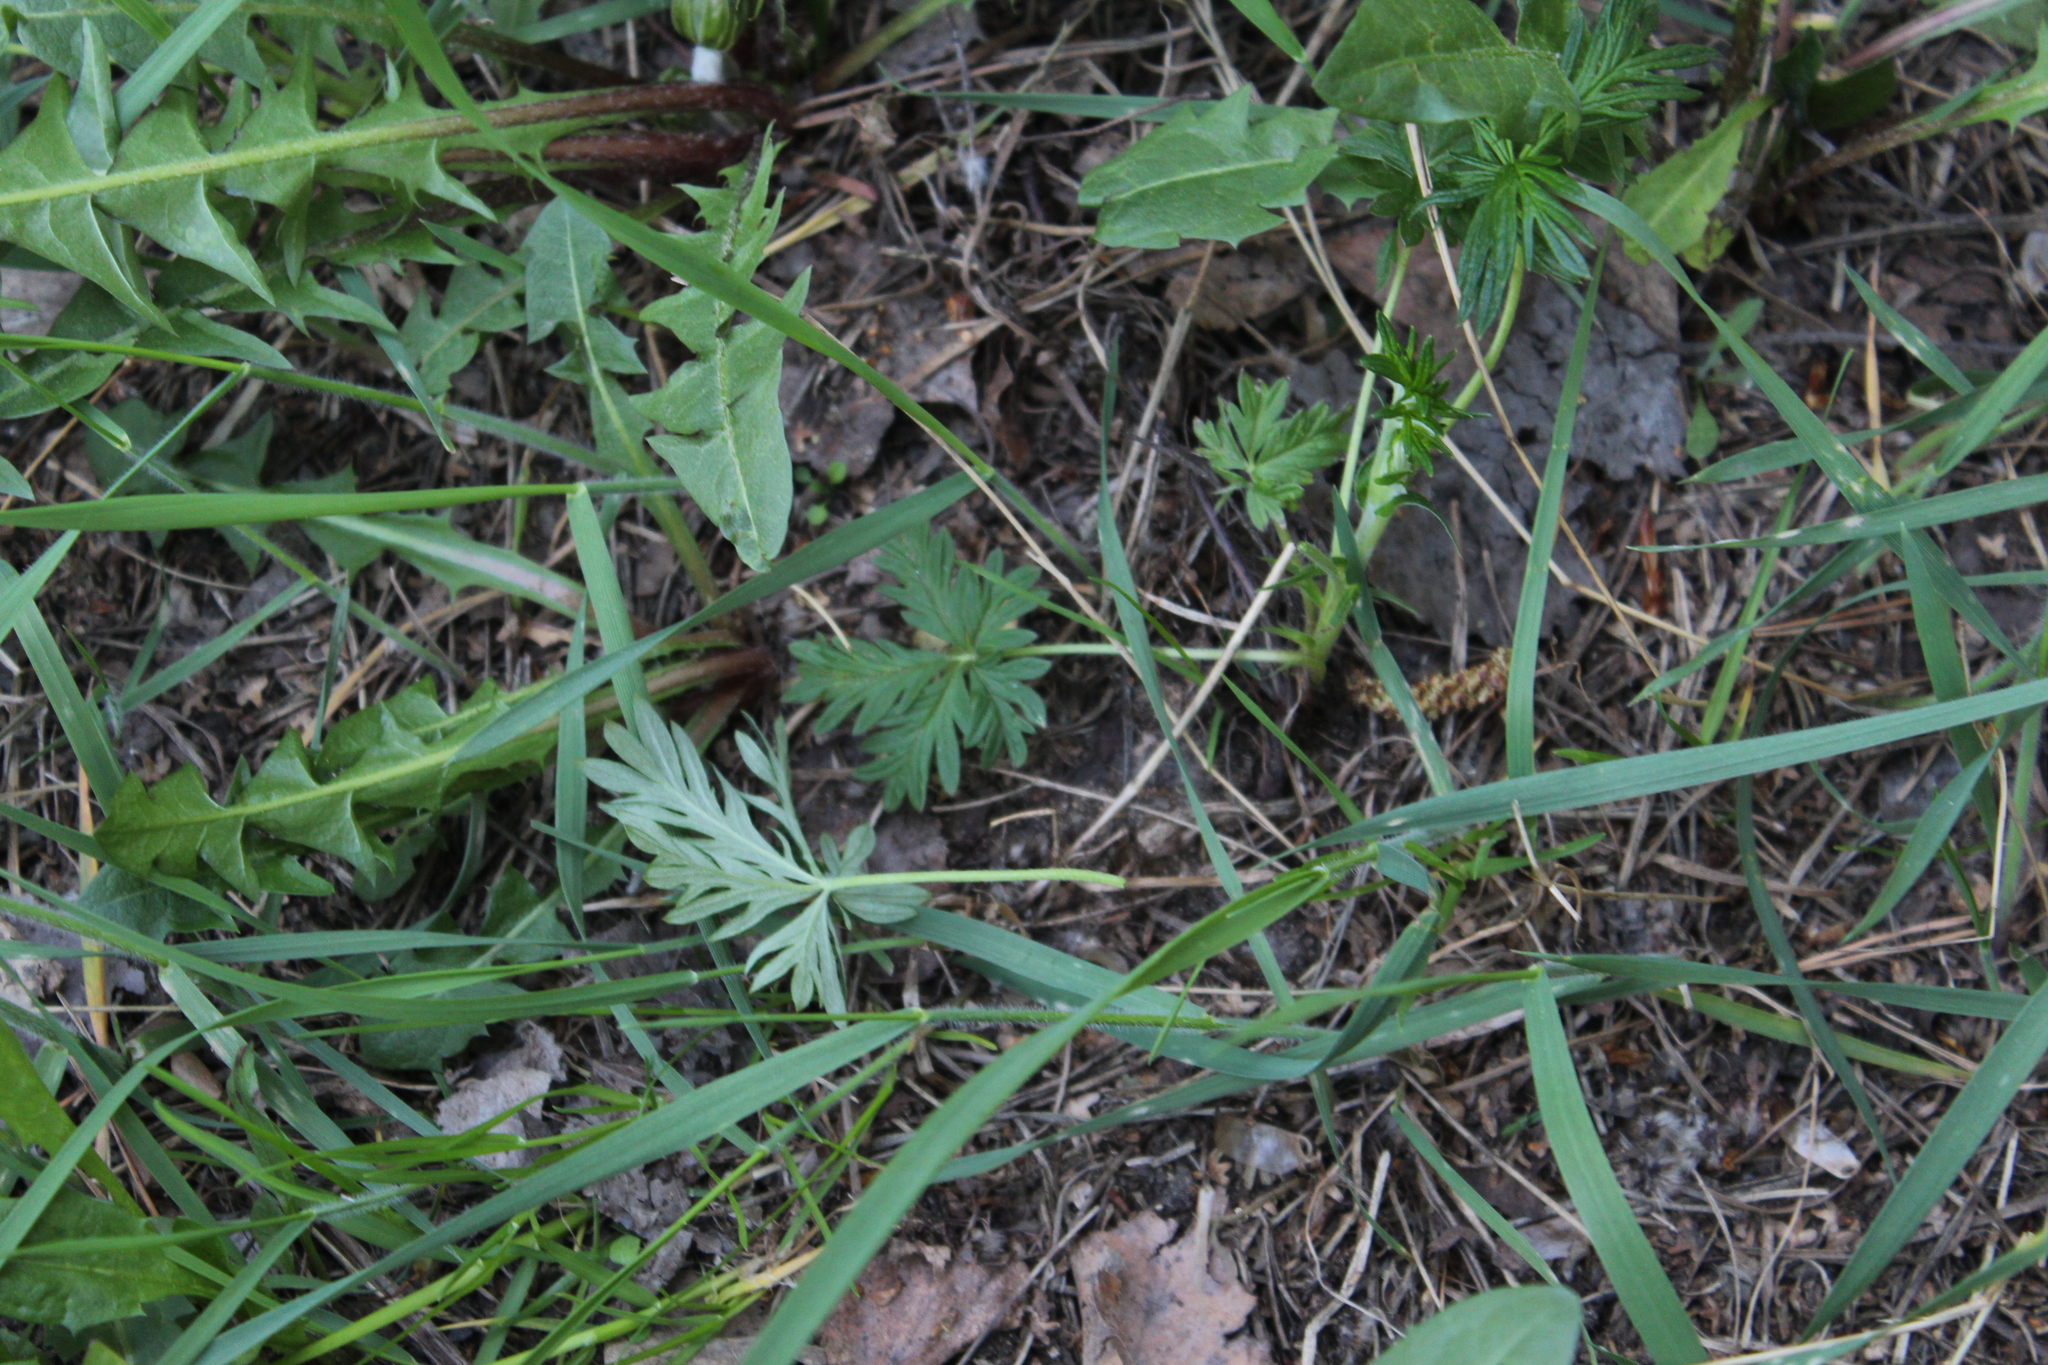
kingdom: Plantae
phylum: Tracheophyta
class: Magnoliopsida
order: Rosales
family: Rosaceae
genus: Potentilla
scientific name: Potentilla argentea
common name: Hoary cinquefoil
